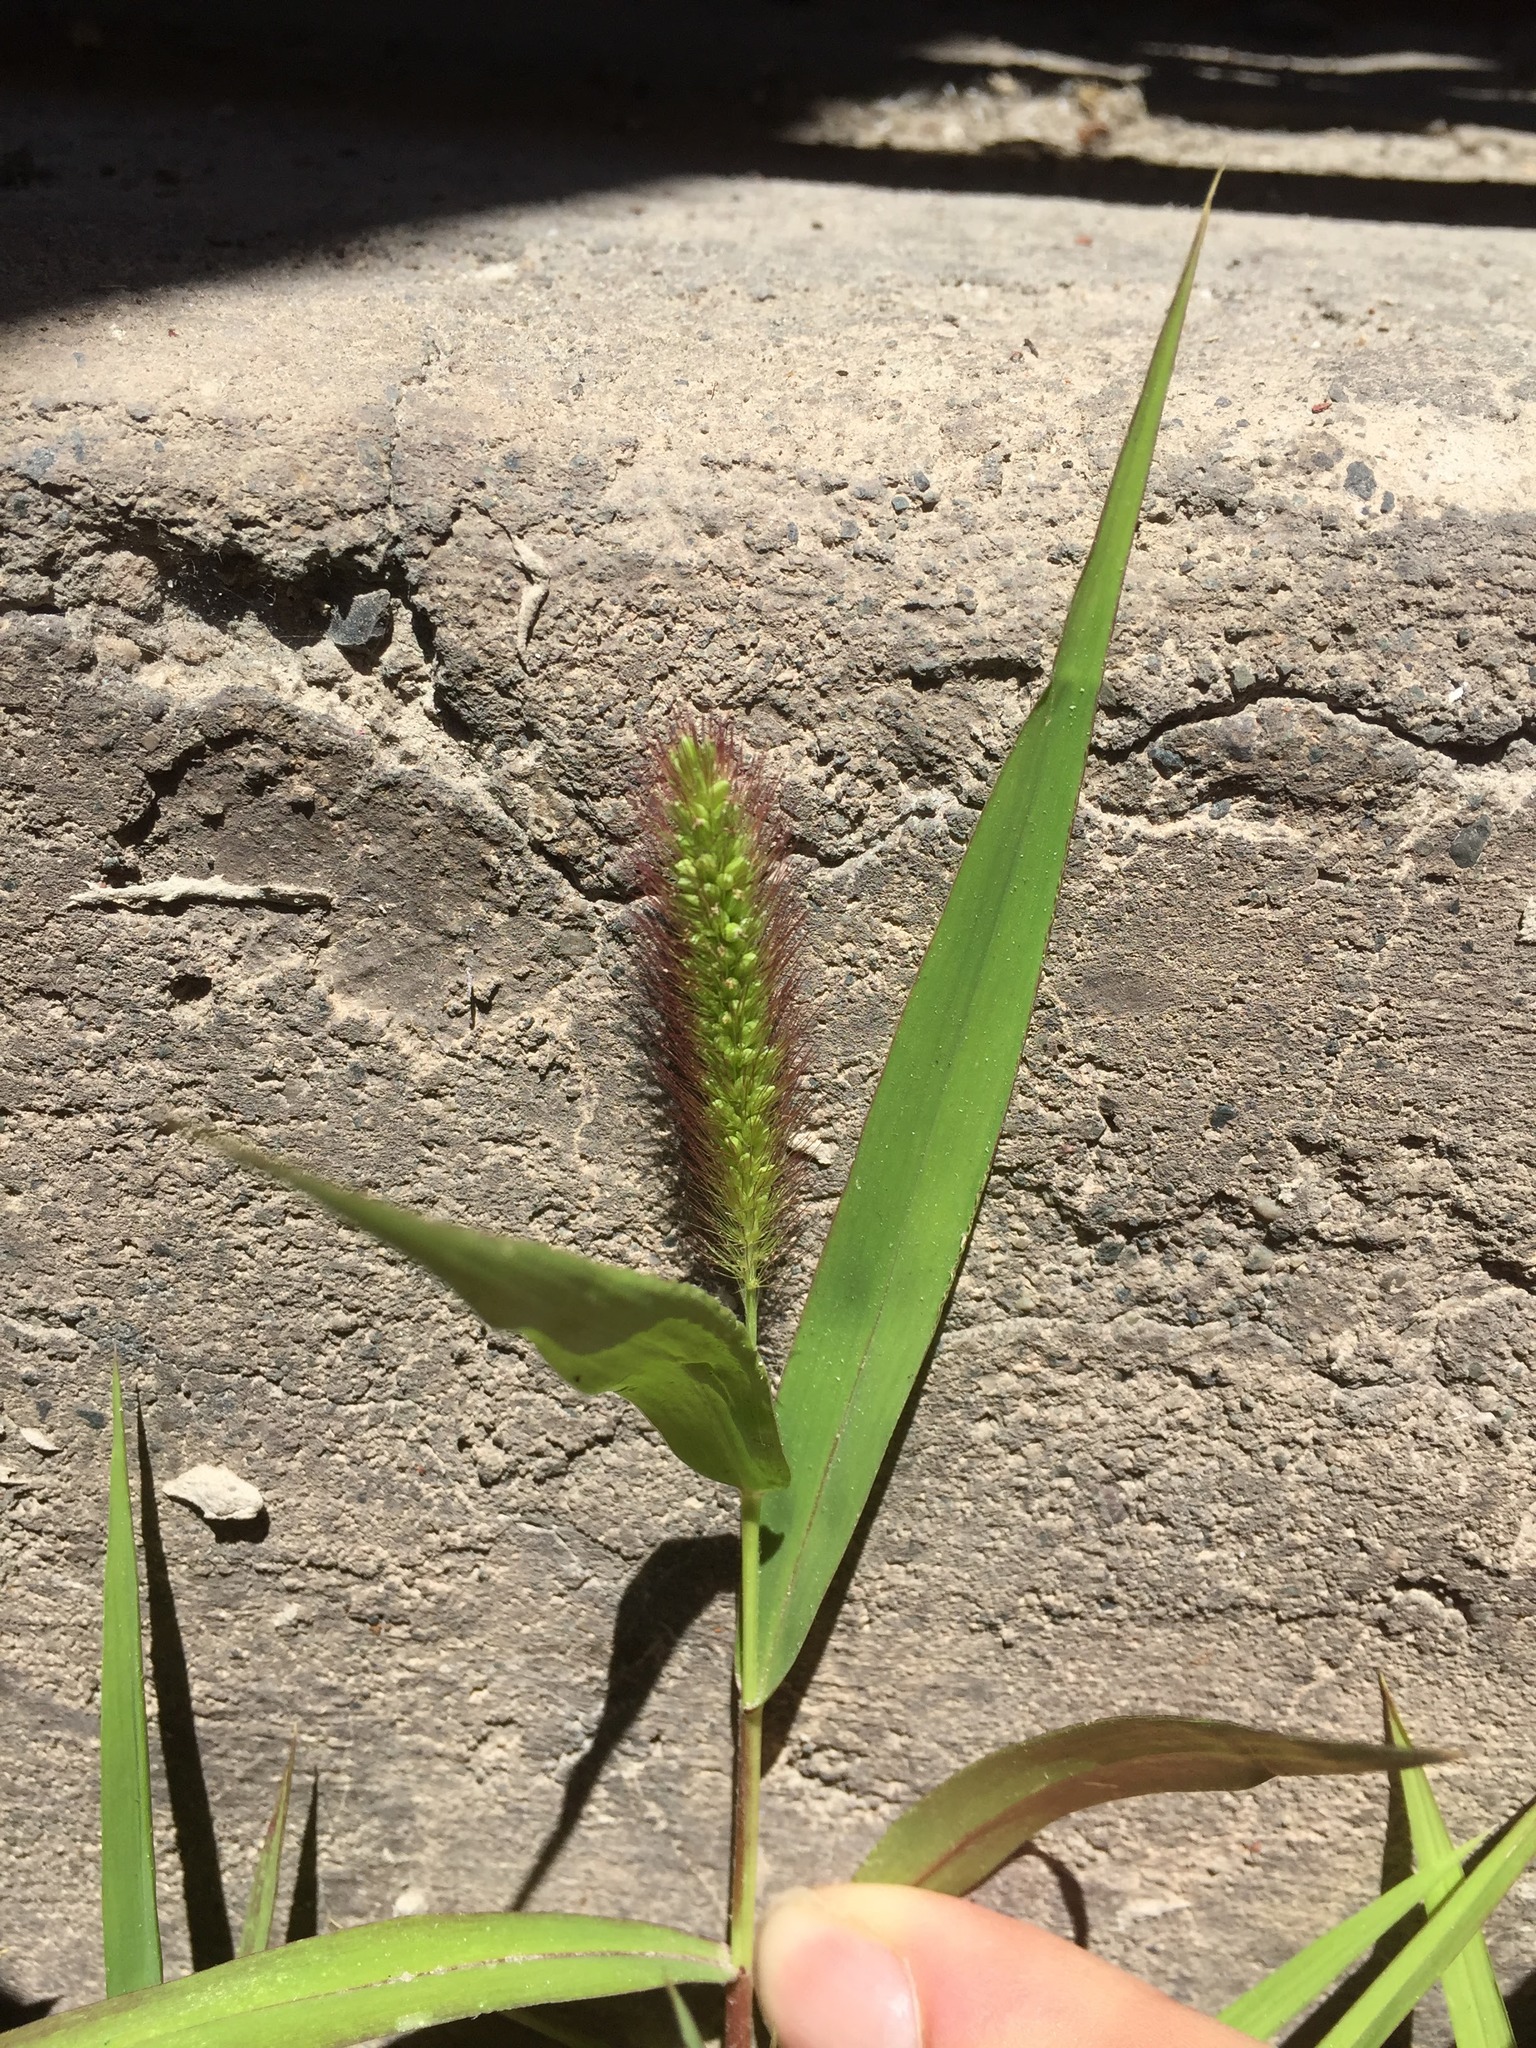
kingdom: Plantae
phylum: Tracheophyta
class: Liliopsida
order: Poales
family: Poaceae
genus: Setaria
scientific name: Setaria viridis
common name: Green bristlegrass
